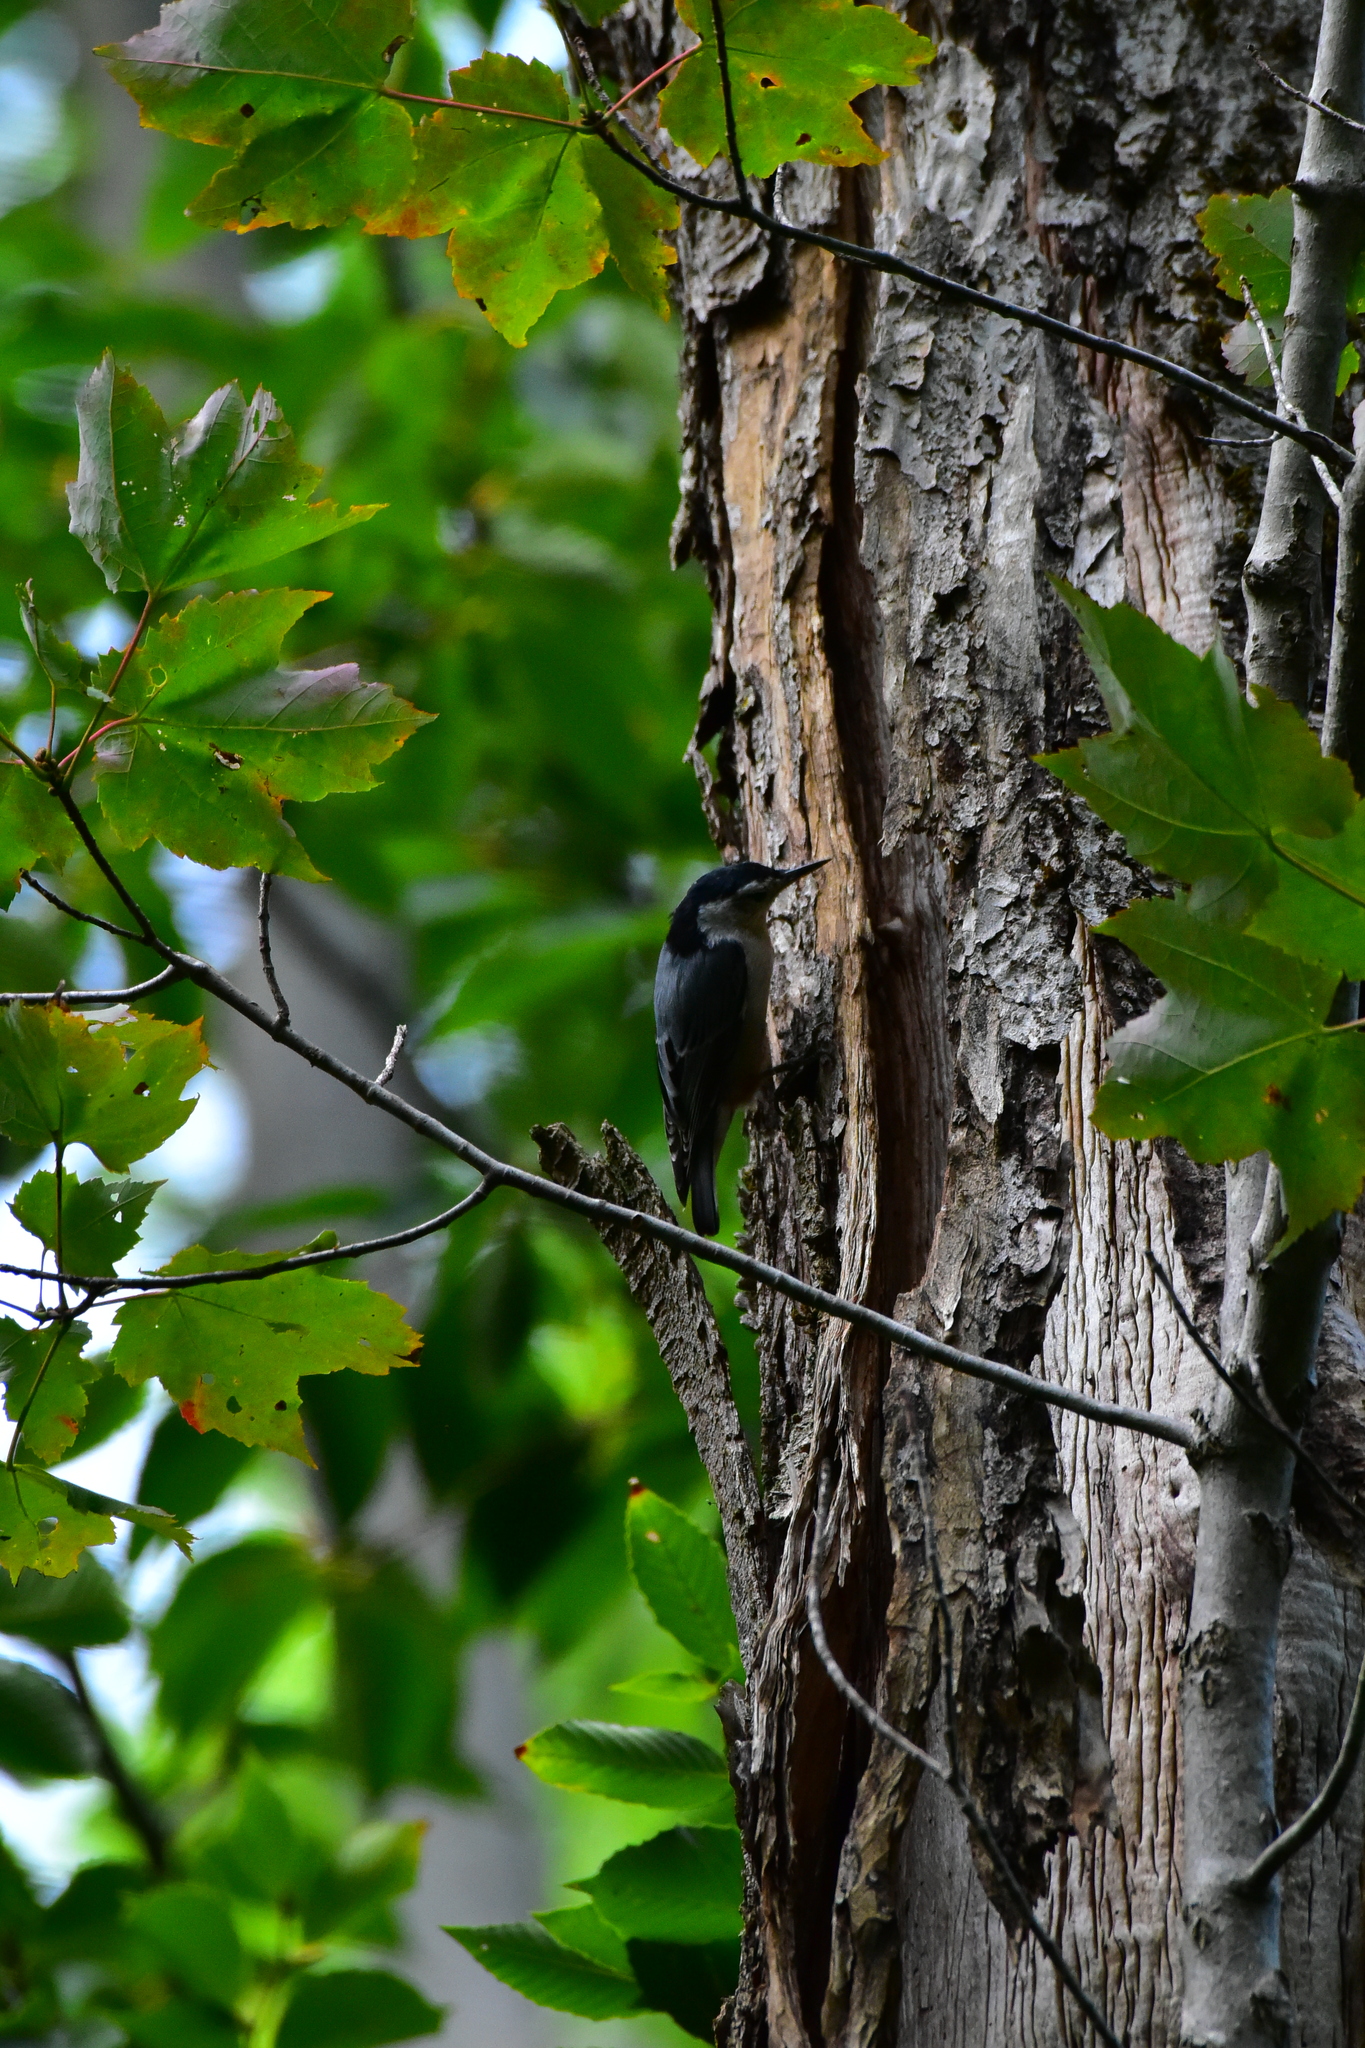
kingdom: Animalia
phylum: Chordata
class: Aves
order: Passeriformes
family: Sittidae
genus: Sitta
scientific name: Sitta carolinensis
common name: White-breasted nuthatch
